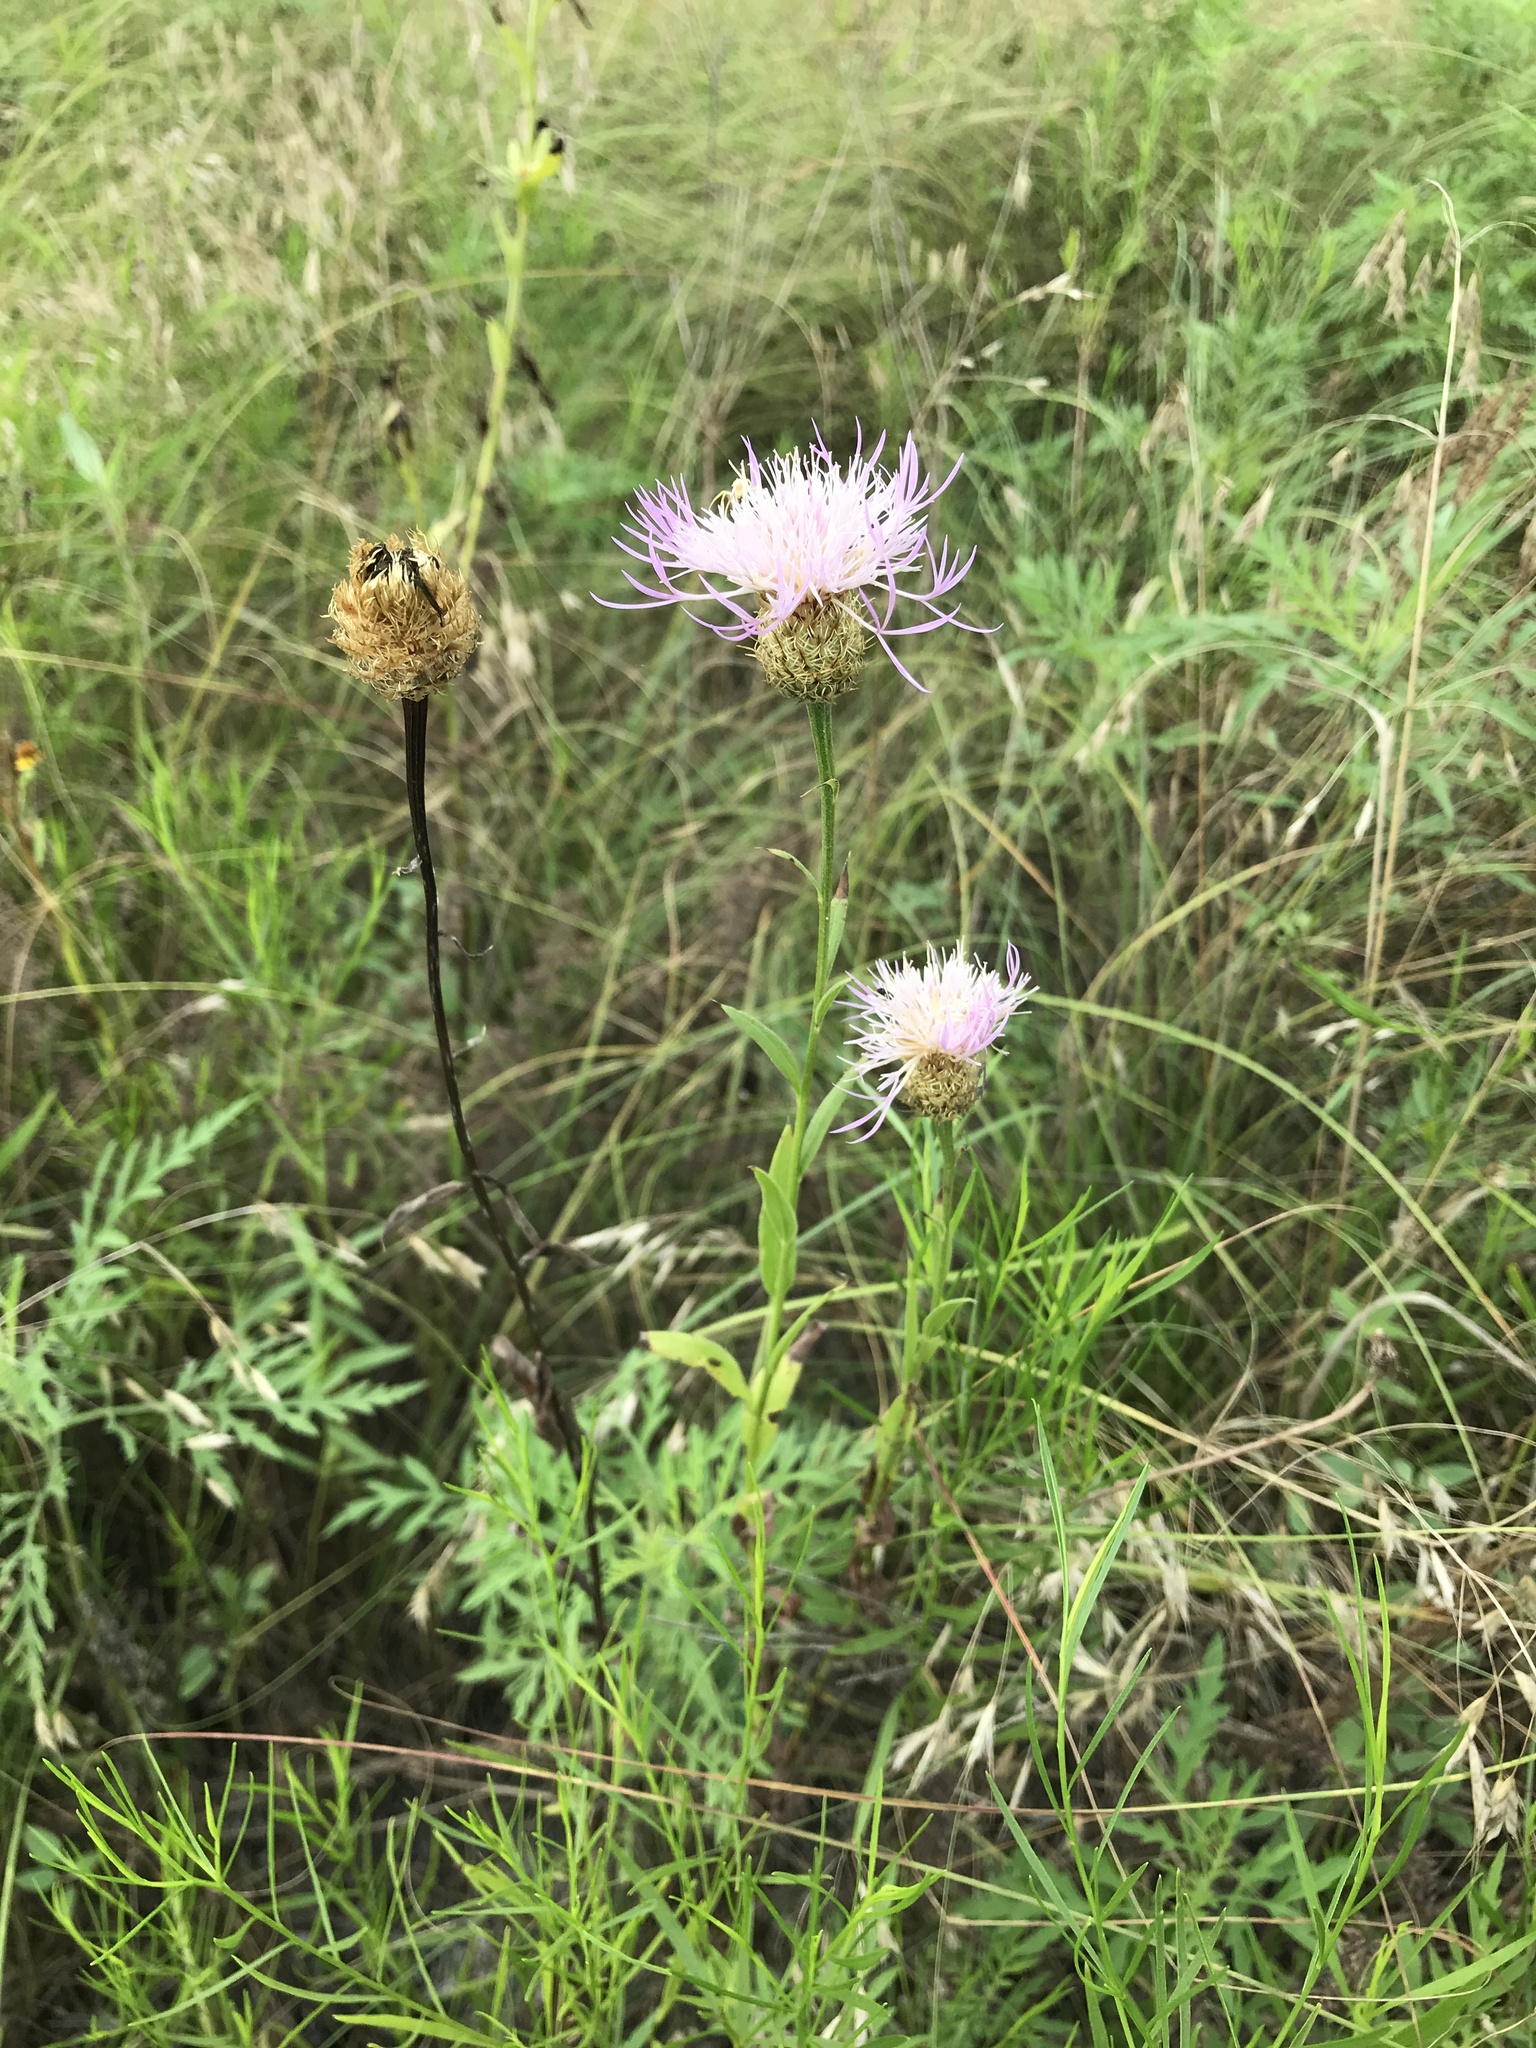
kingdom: Plantae
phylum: Tracheophyta
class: Magnoliopsida
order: Asterales
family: Asteraceae
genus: Plectocephalus
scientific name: Plectocephalus americanus
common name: American basket-flower
